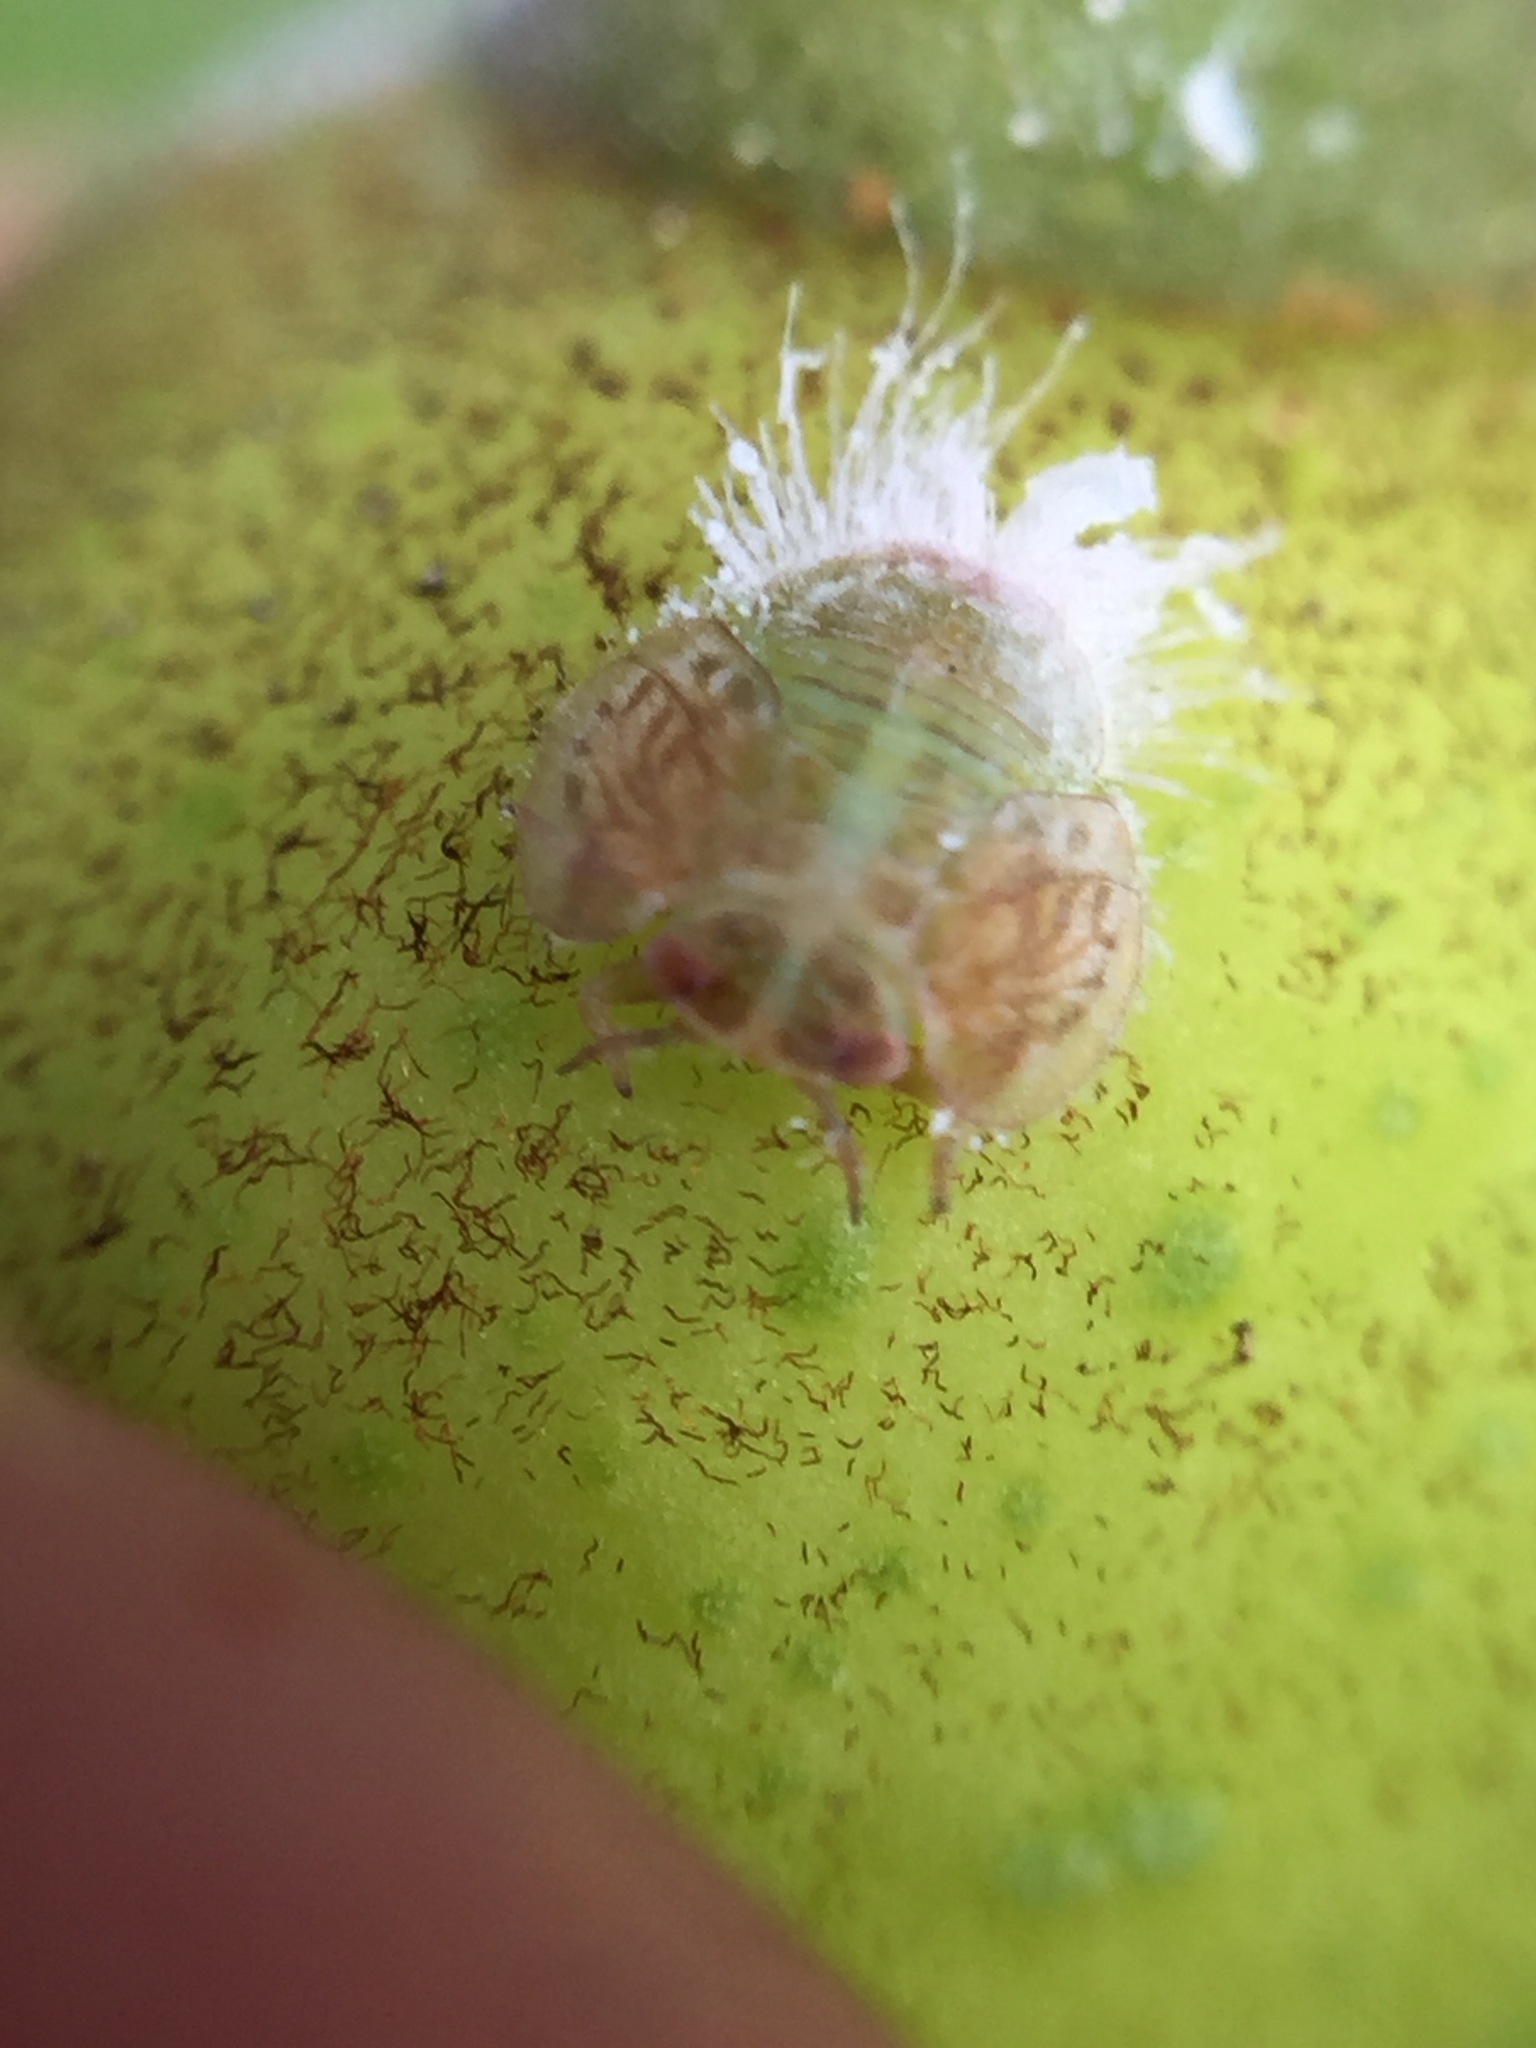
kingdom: Animalia
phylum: Arthropoda
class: Insecta
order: Hemiptera
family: Homotomidae
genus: Mycopsylla
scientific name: Mycopsylla obliqua
